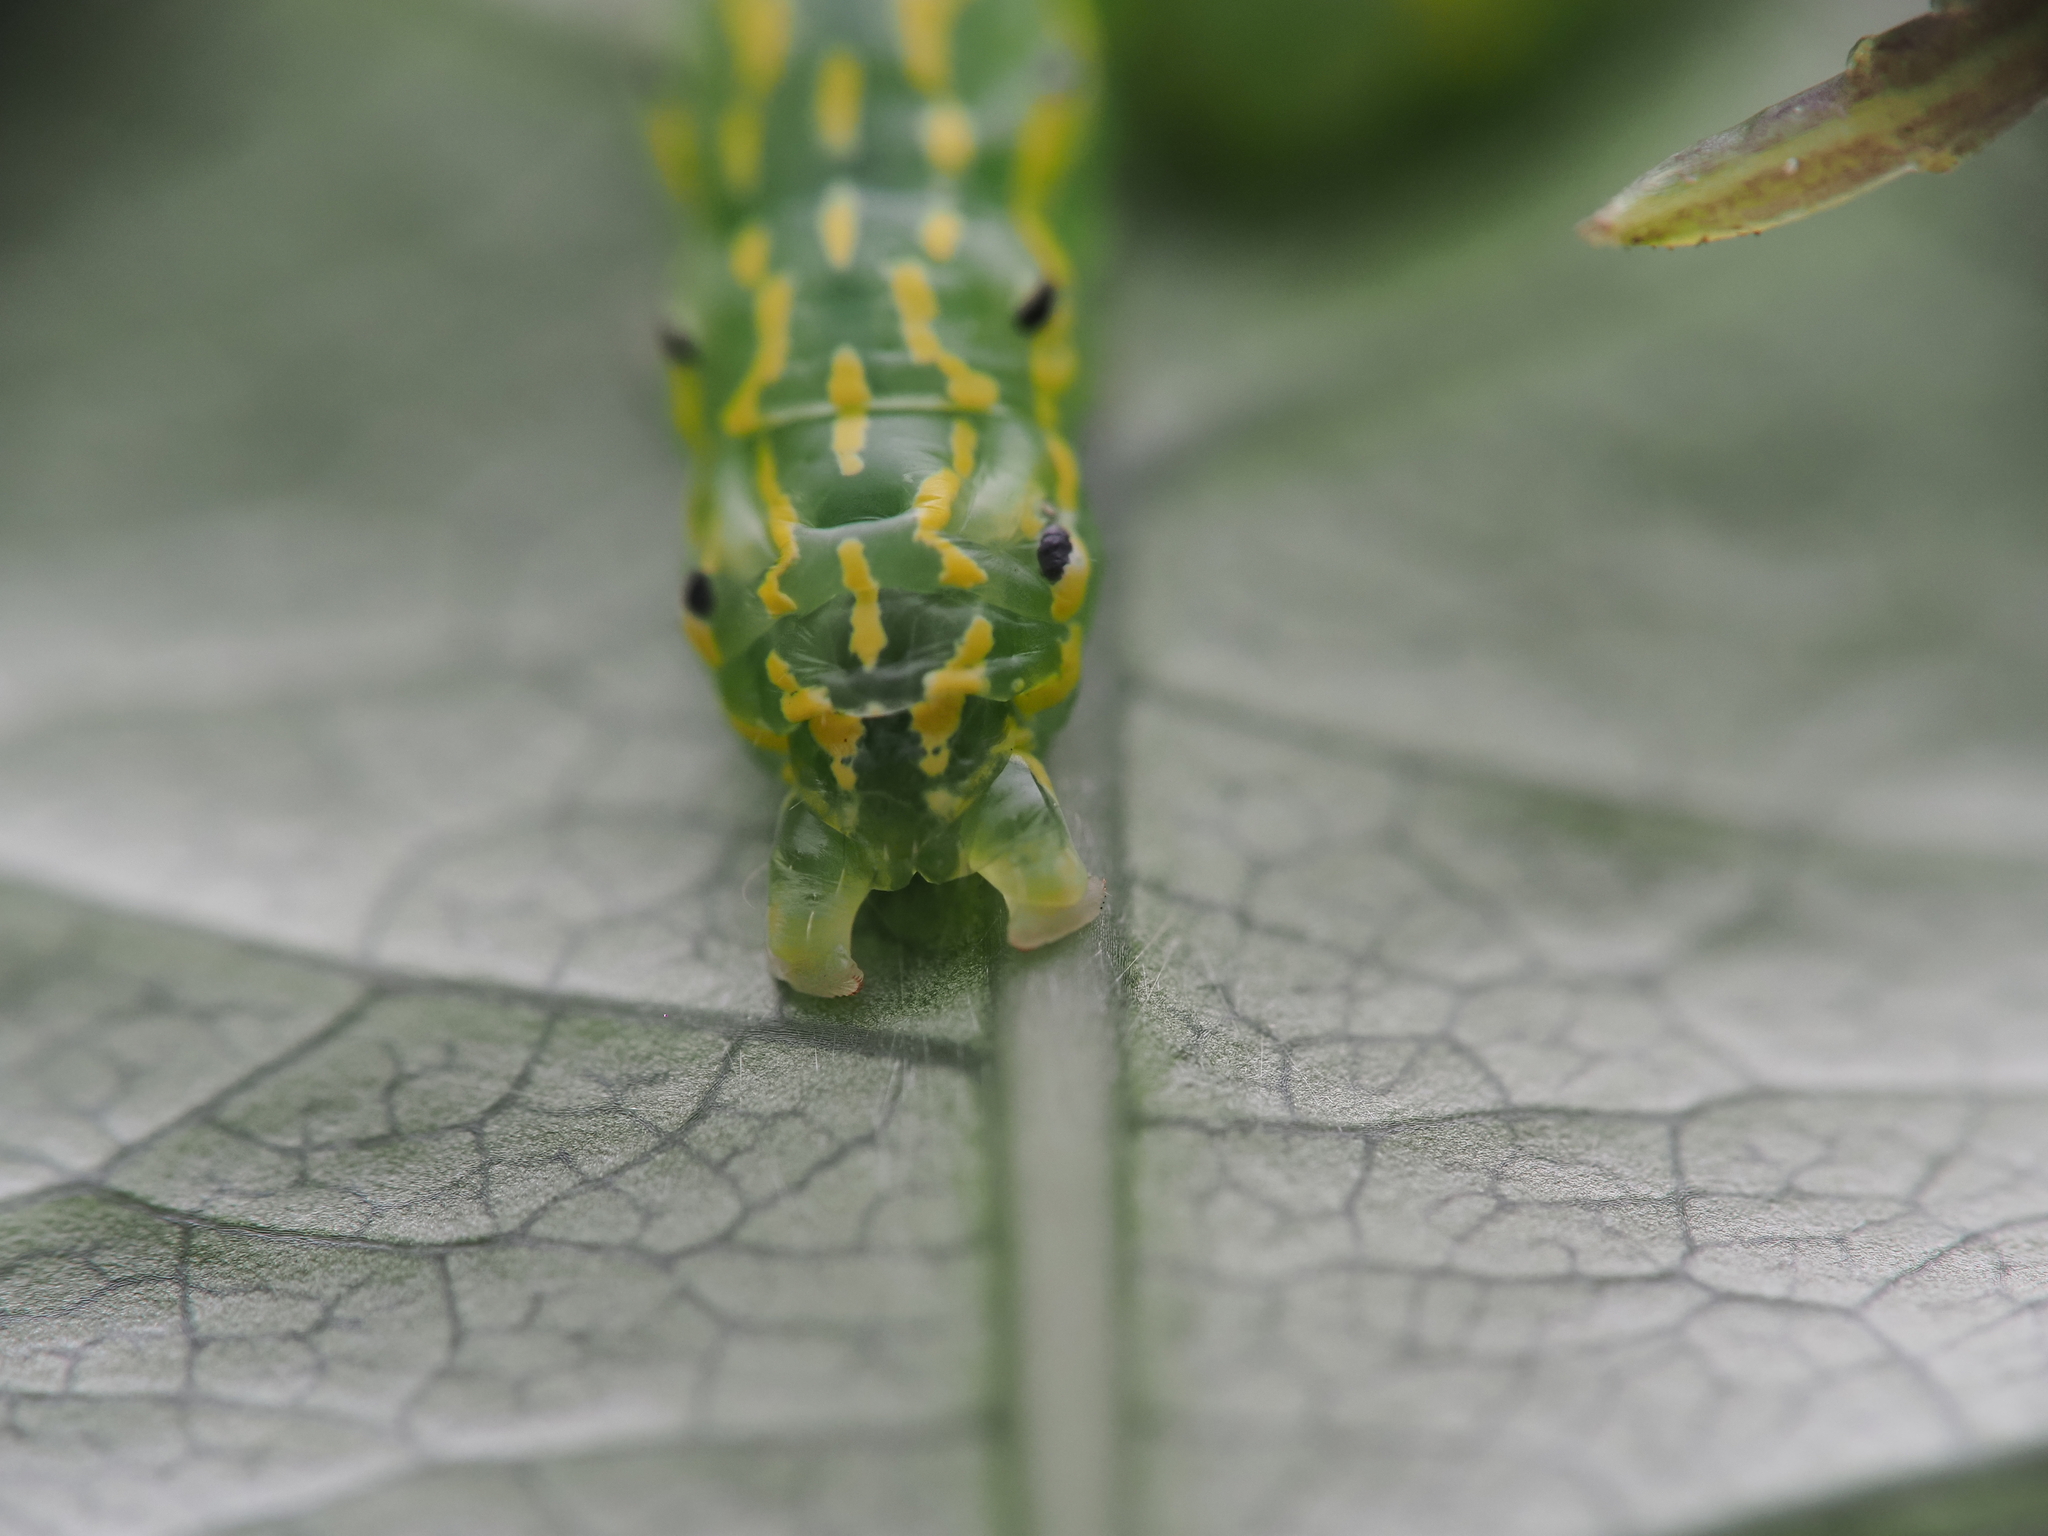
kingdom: Animalia
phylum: Arthropoda
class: Insecta
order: Lepidoptera
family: Noctuidae
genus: Austramathes
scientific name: Austramathes purpurea
